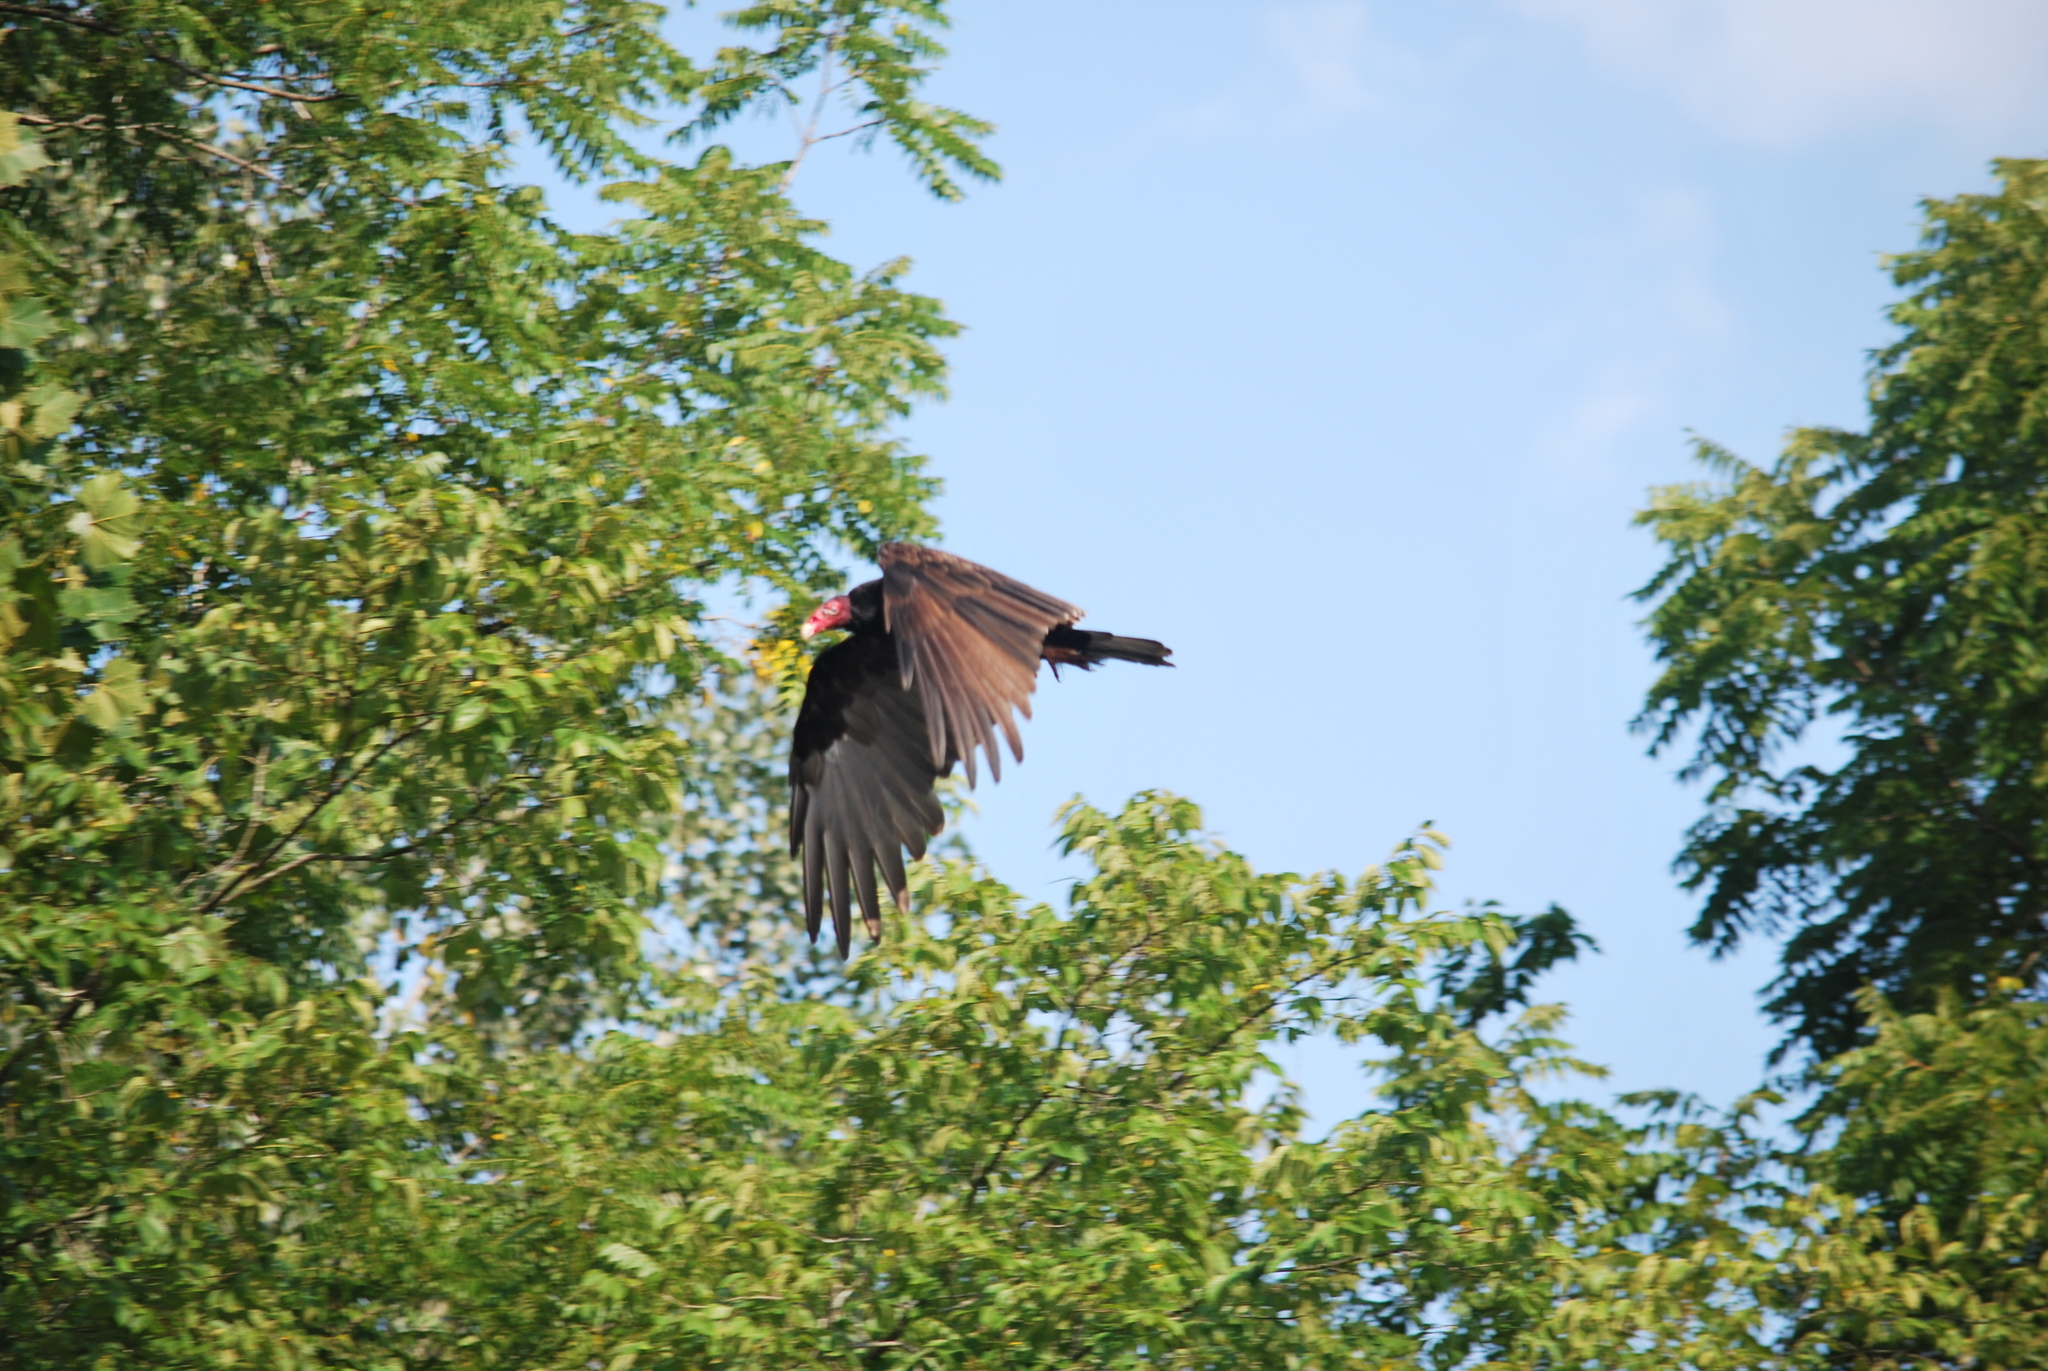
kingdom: Animalia
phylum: Chordata
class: Aves
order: Accipitriformes
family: Cathartidae
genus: Cathartes
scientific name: Cathartes aura
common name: Turkey vulture
